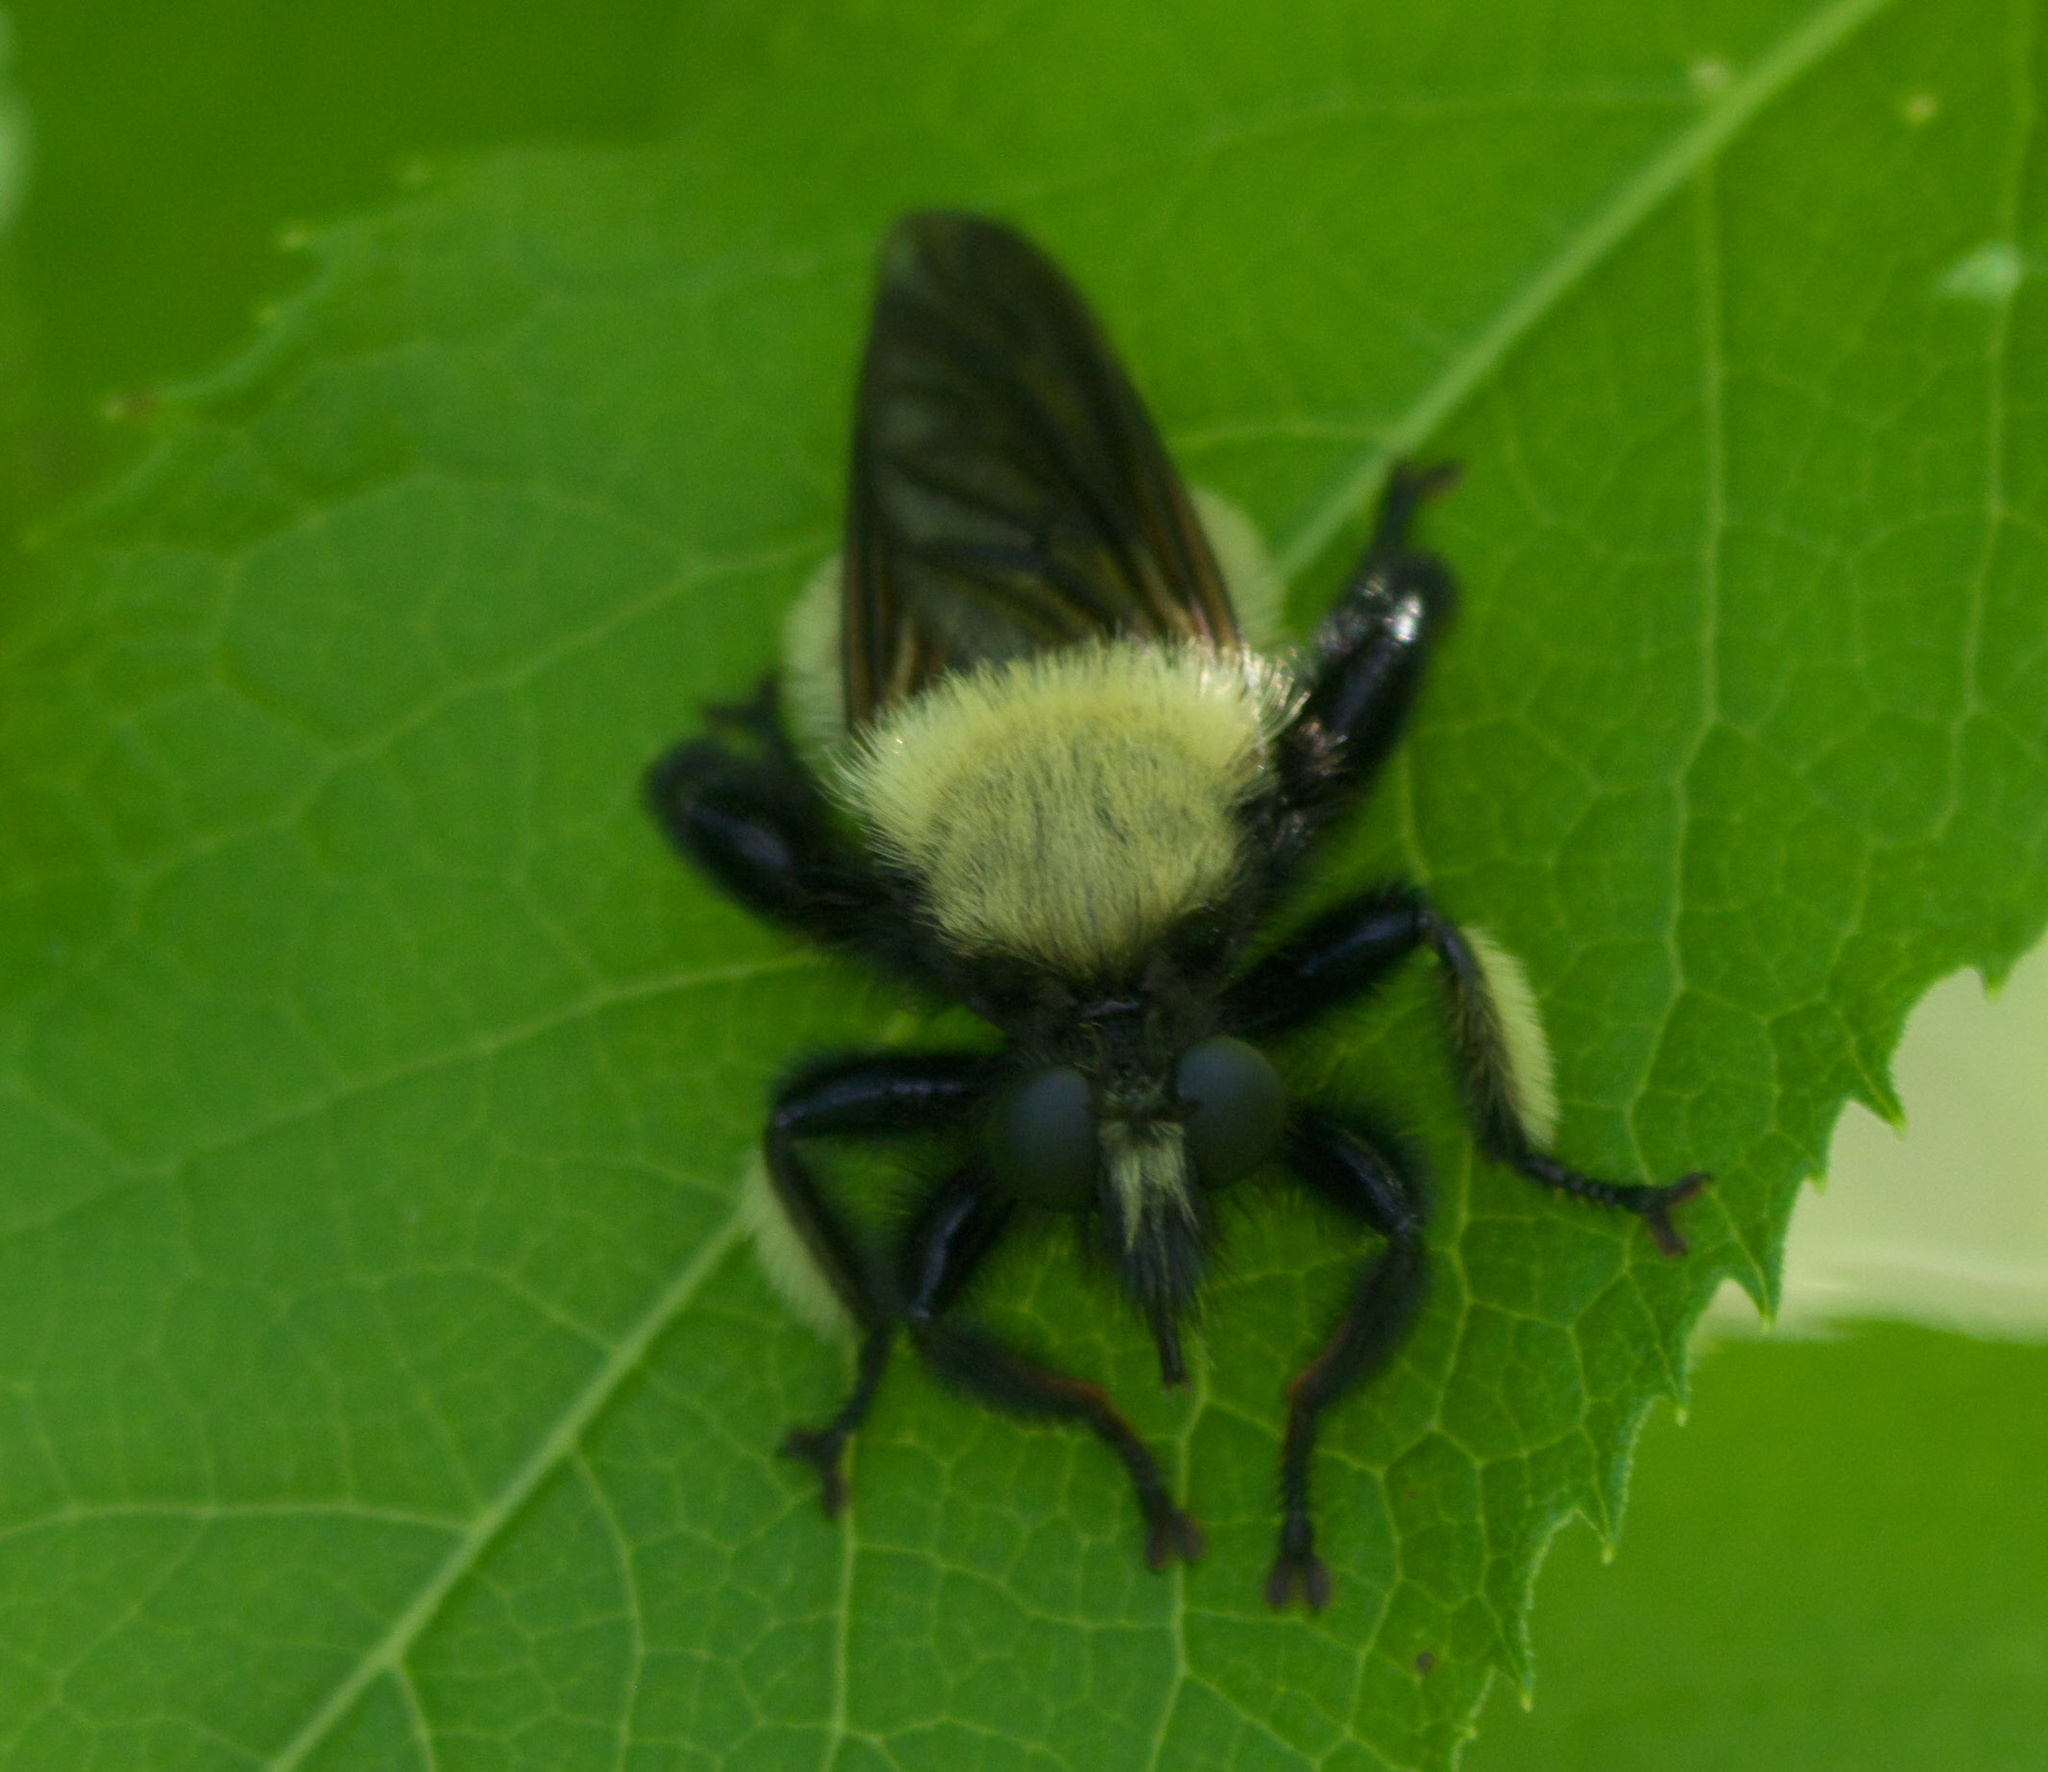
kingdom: Animalia
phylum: Arthropoda
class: Insecta
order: Diptera
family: Asilidae
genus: Laphria
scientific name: Laphria macquarti
